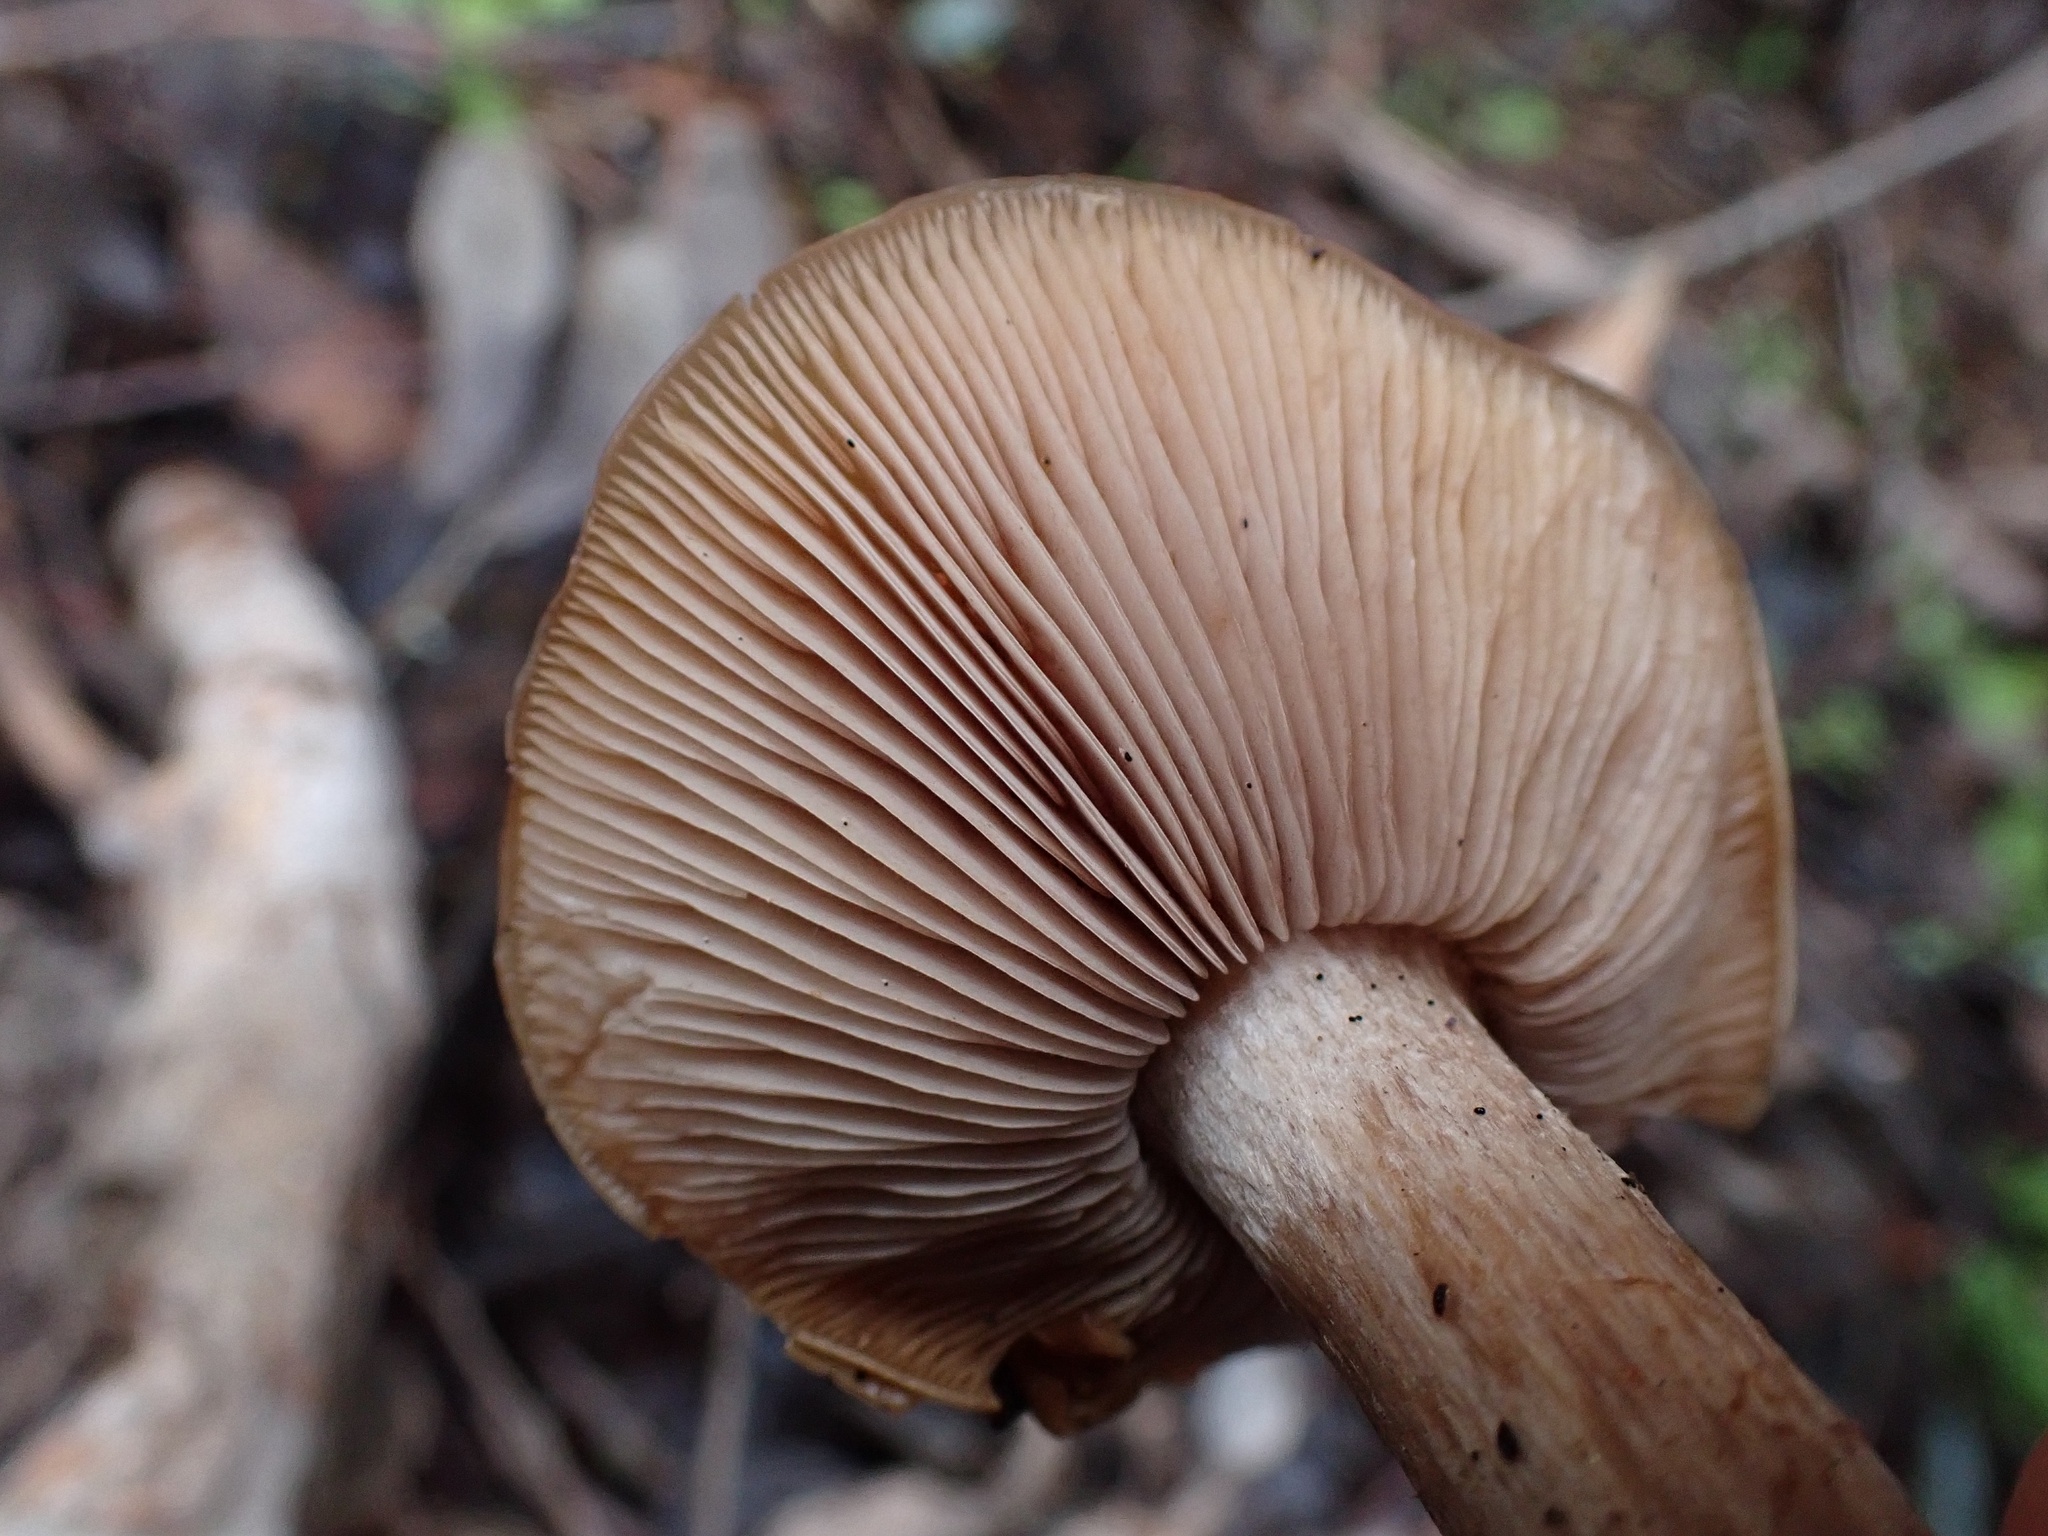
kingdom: Fungi
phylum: Basidiomycota
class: Agaricomycetes
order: Agaricales
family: Tricholomataceae
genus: Collybia
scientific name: Collybia
